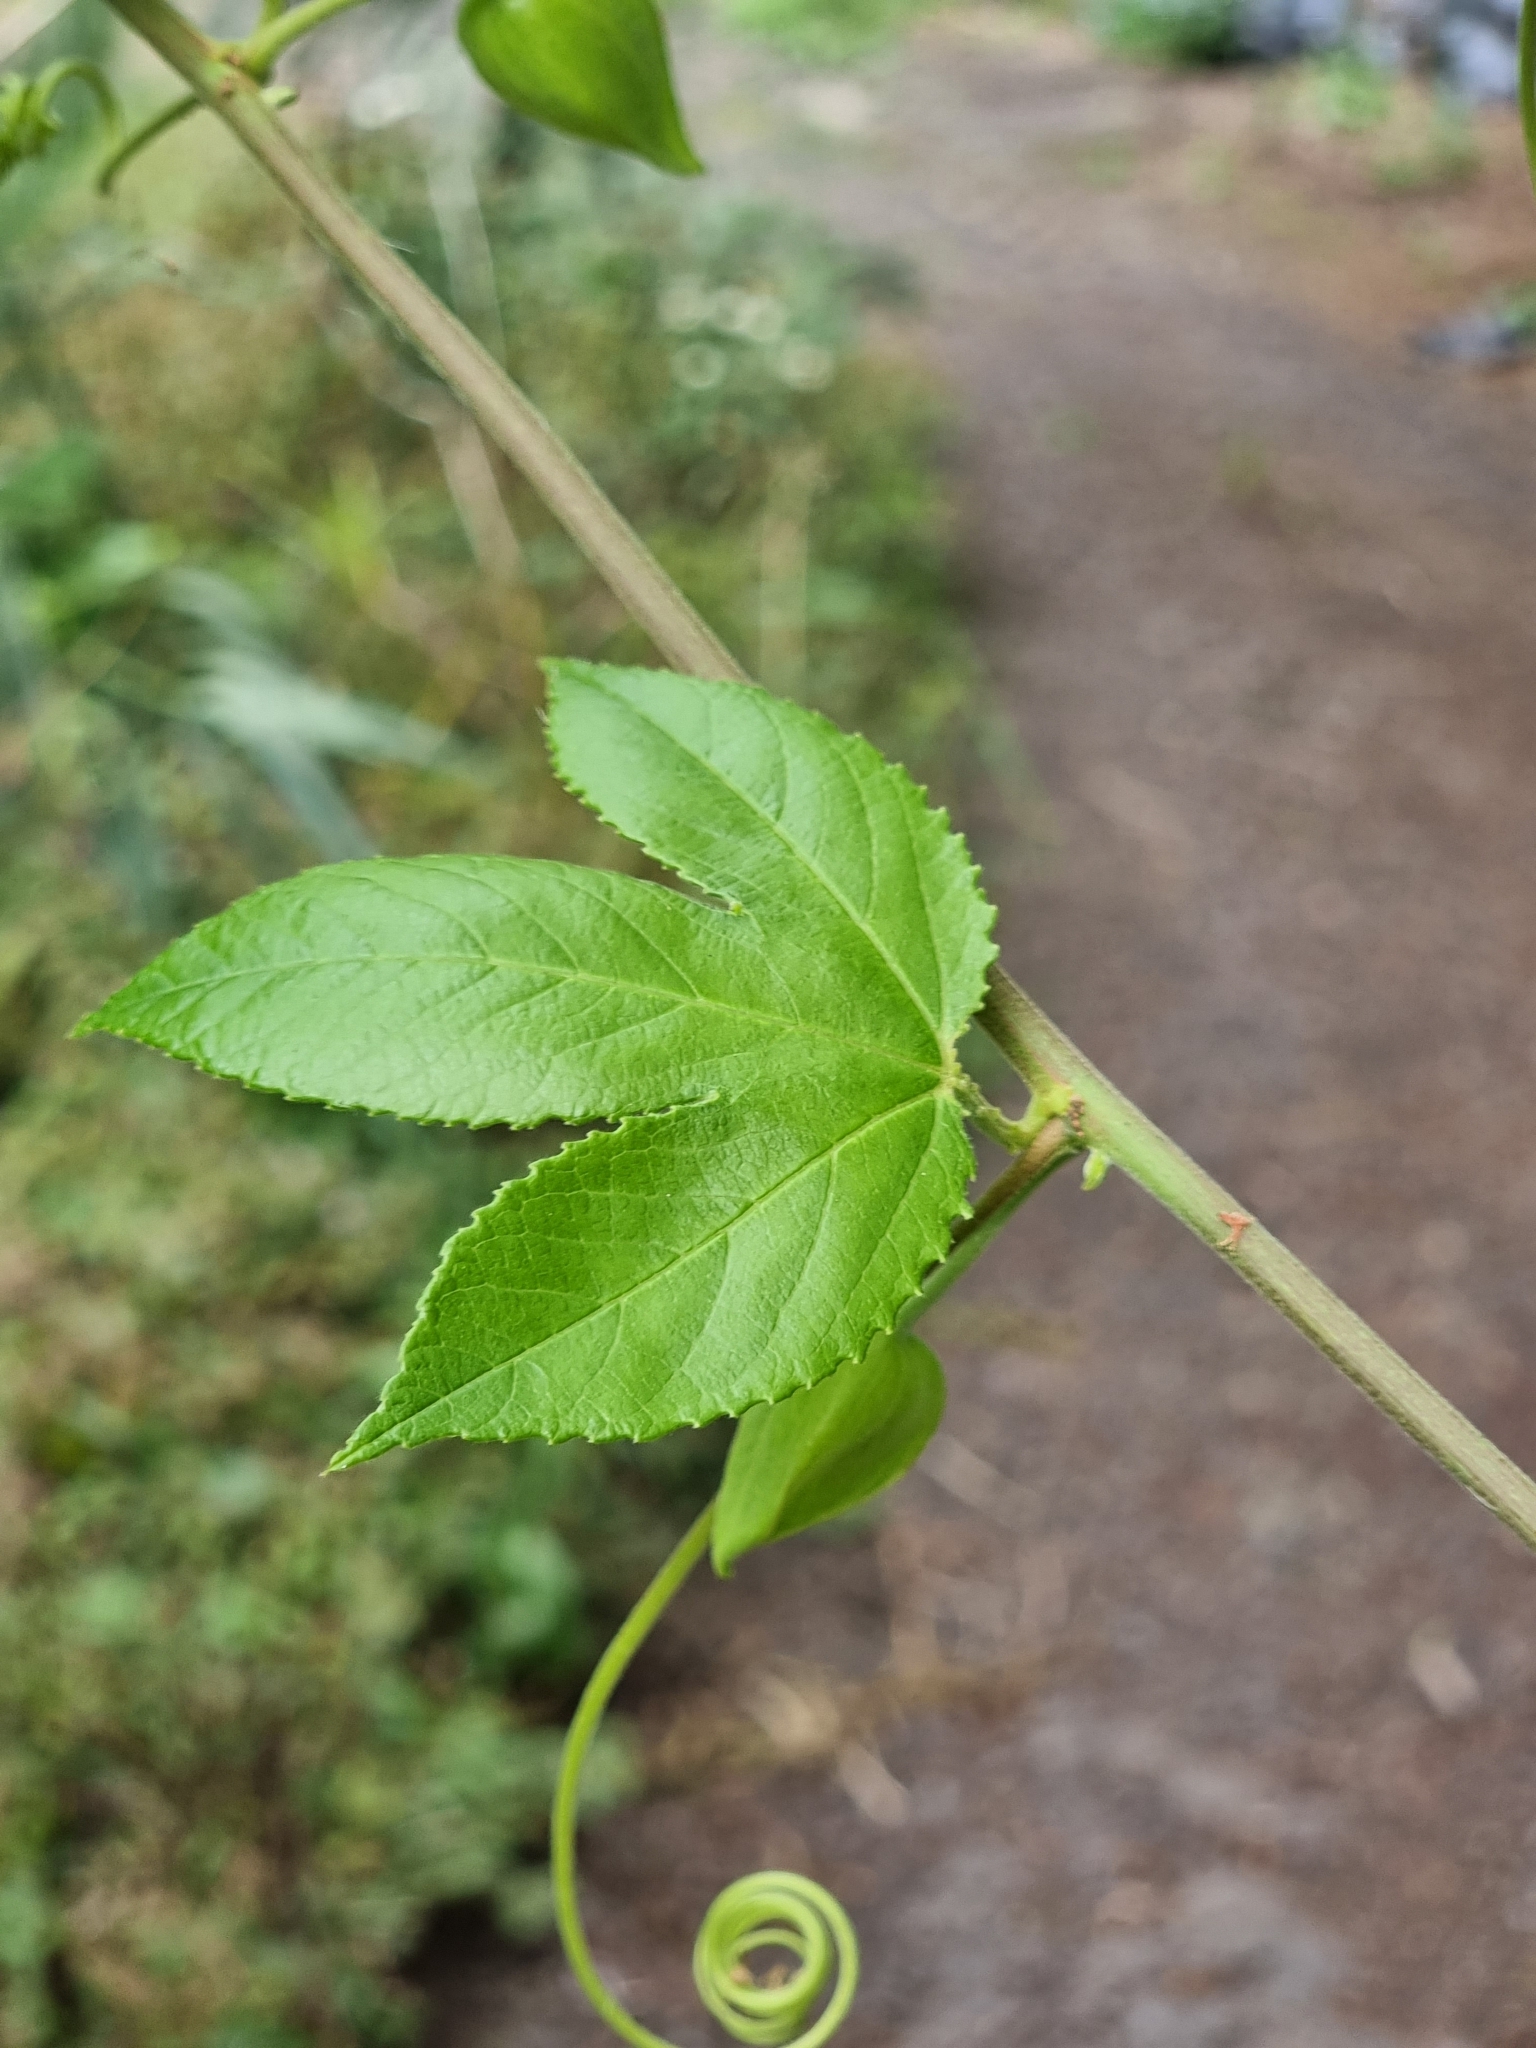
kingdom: Plantae
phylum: Tracheophyta
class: Magnoliopsida
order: Malpighiales
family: Passifloraceae
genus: Passiflora
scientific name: Passiflora tarminiana
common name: Banana poka
